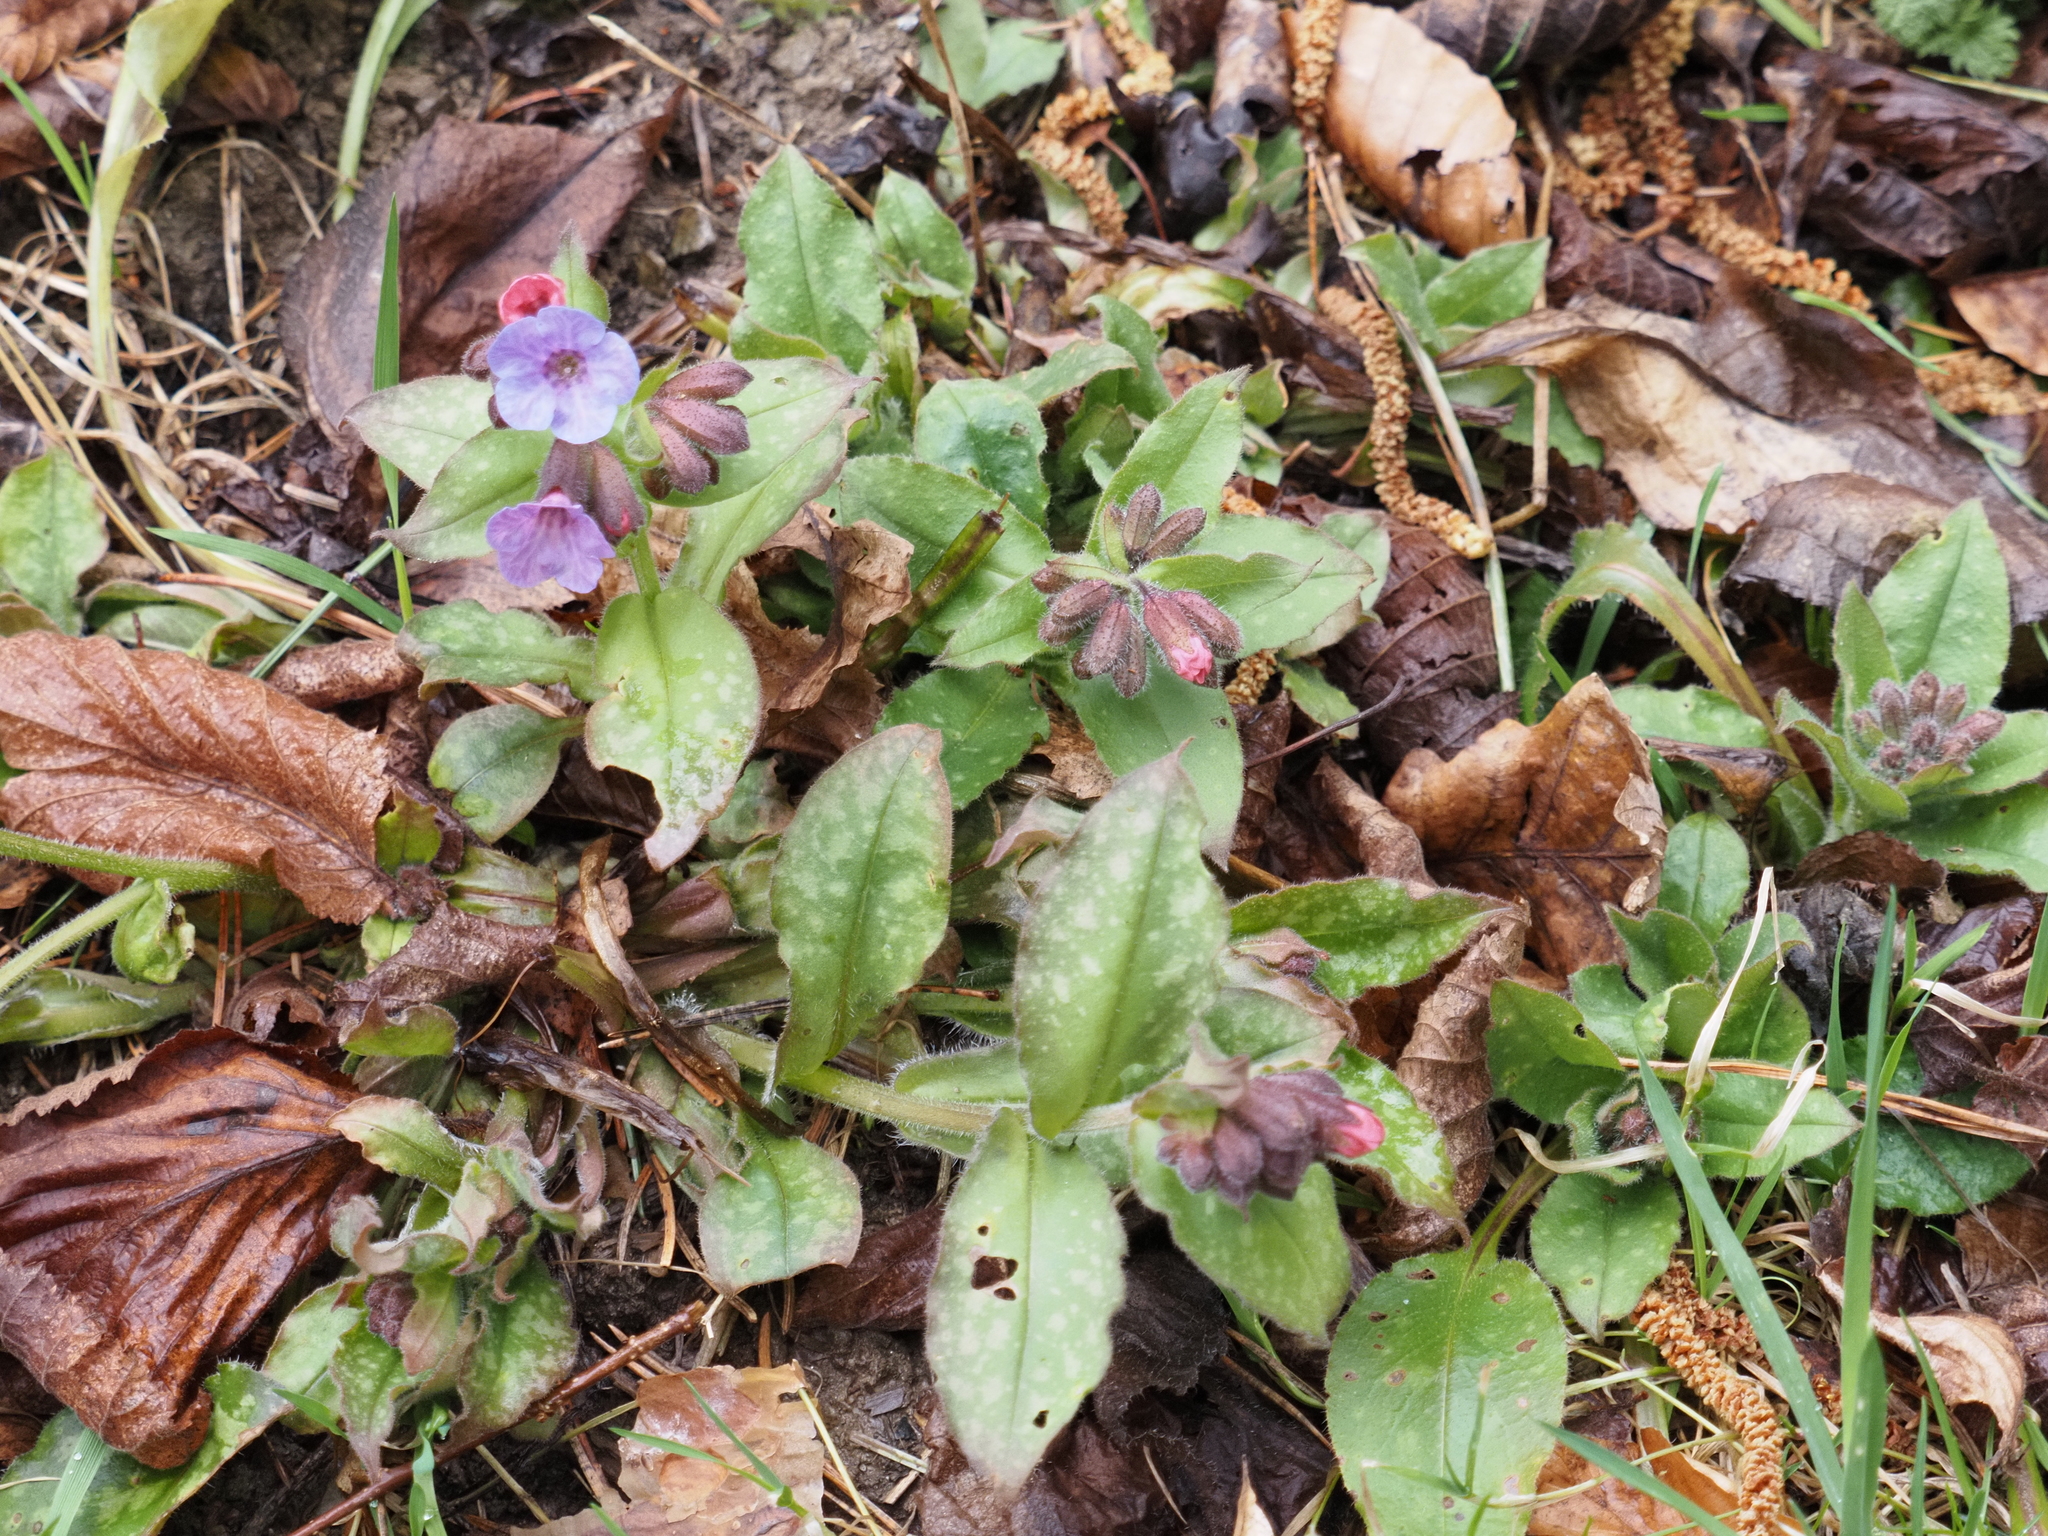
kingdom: Plantae
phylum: Tracheophyta
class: Magnoliopsida
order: Boraginales
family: Boraginaceae
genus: Pulmonaria
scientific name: Pulmonaria officinalis
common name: Lungwort
